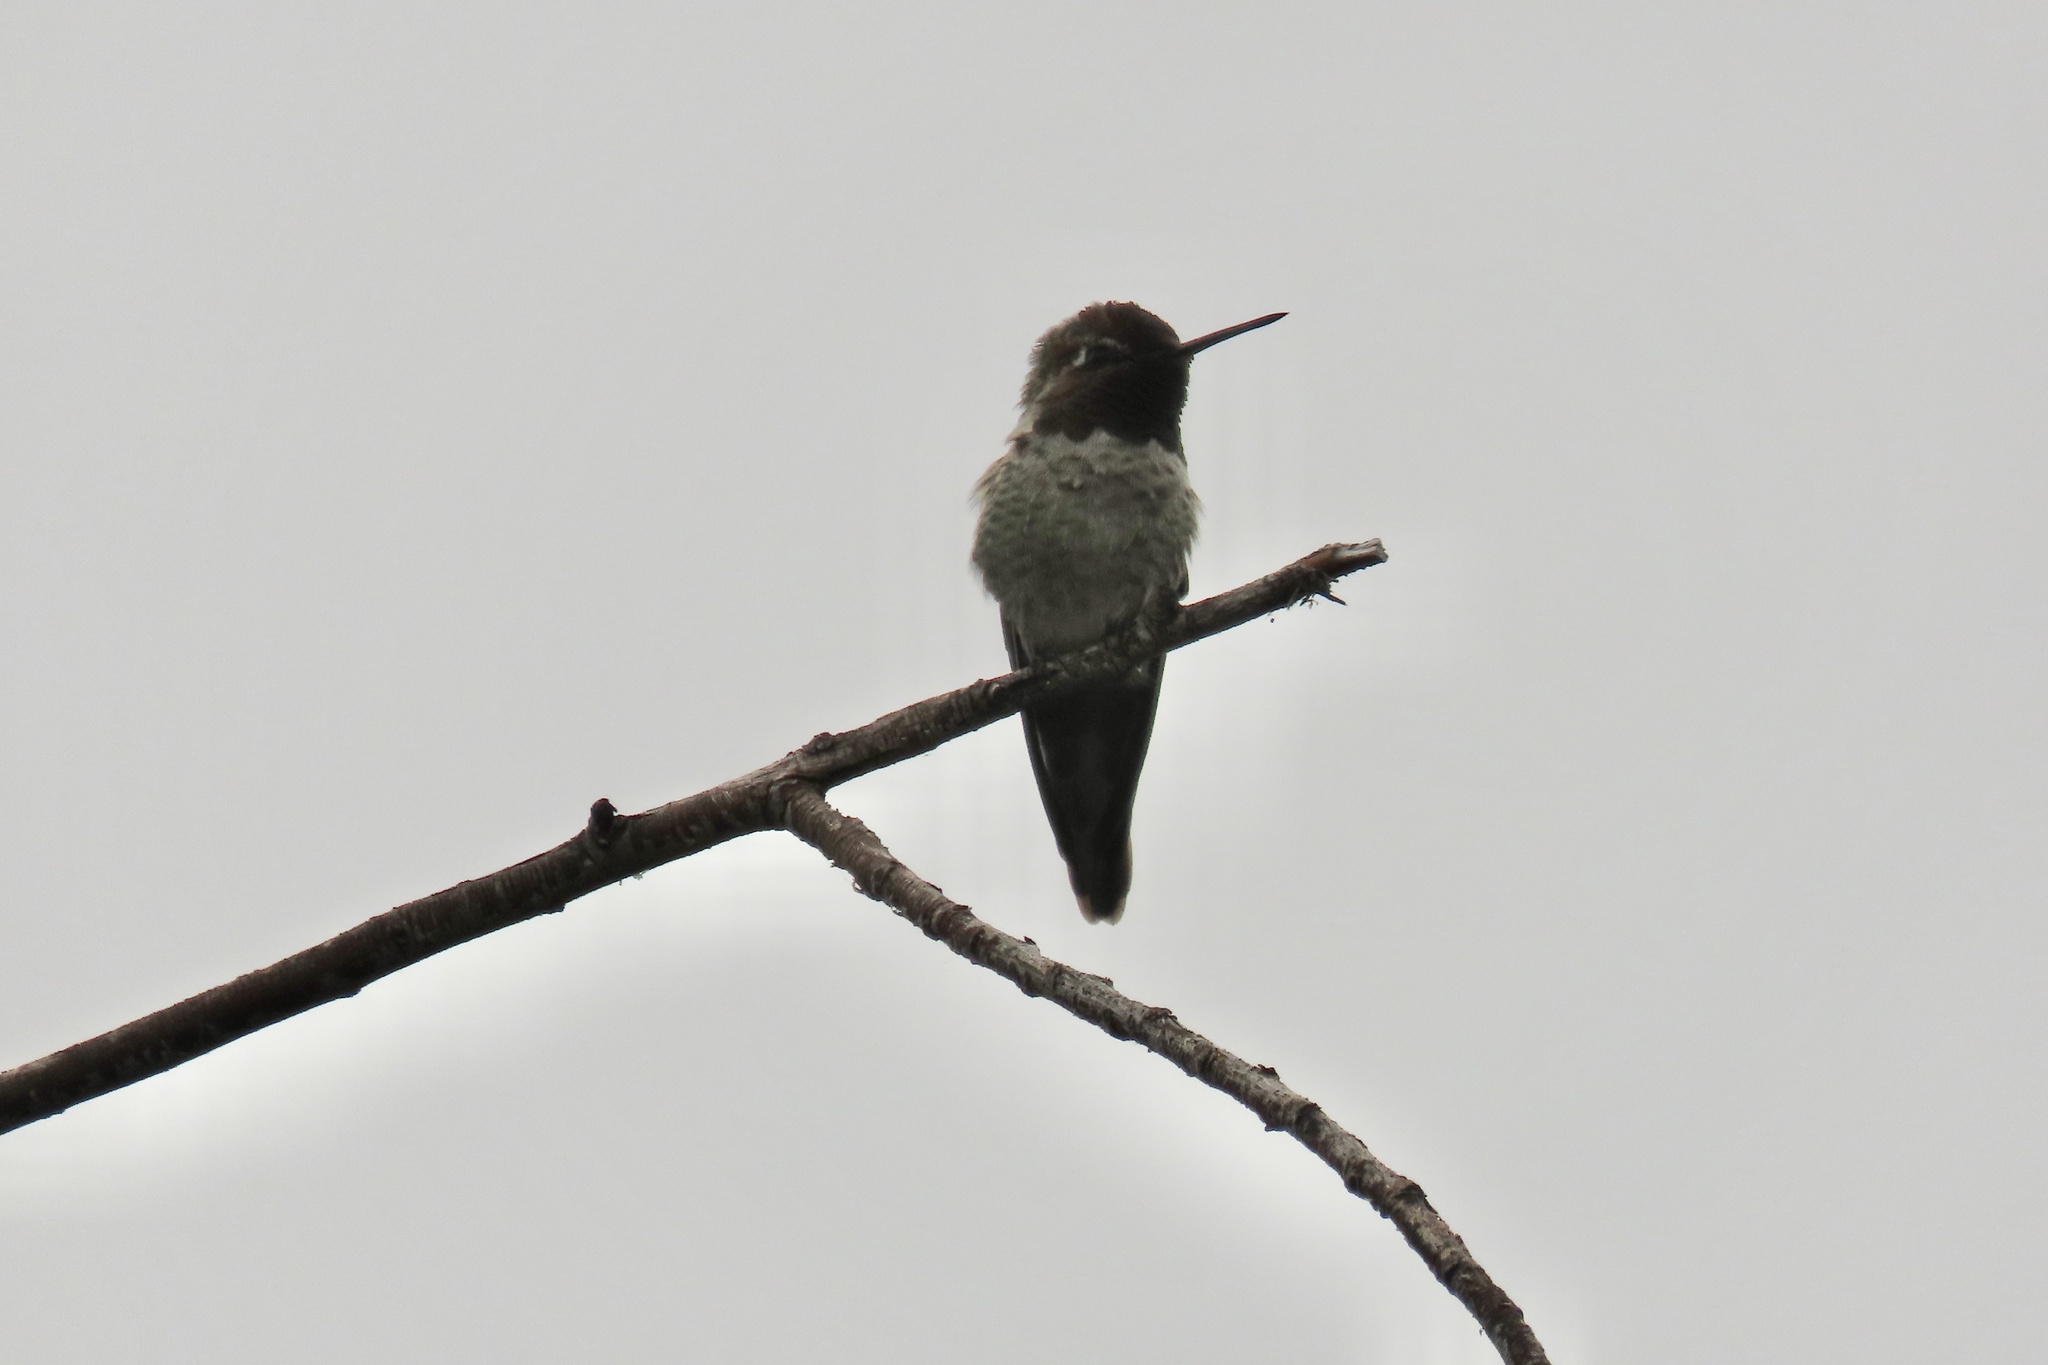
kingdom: Animalia
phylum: Chordata
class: Aves
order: Apodiformes
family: Trochilidae
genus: Calypte
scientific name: Calypte anna
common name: Anna's hummingbird
